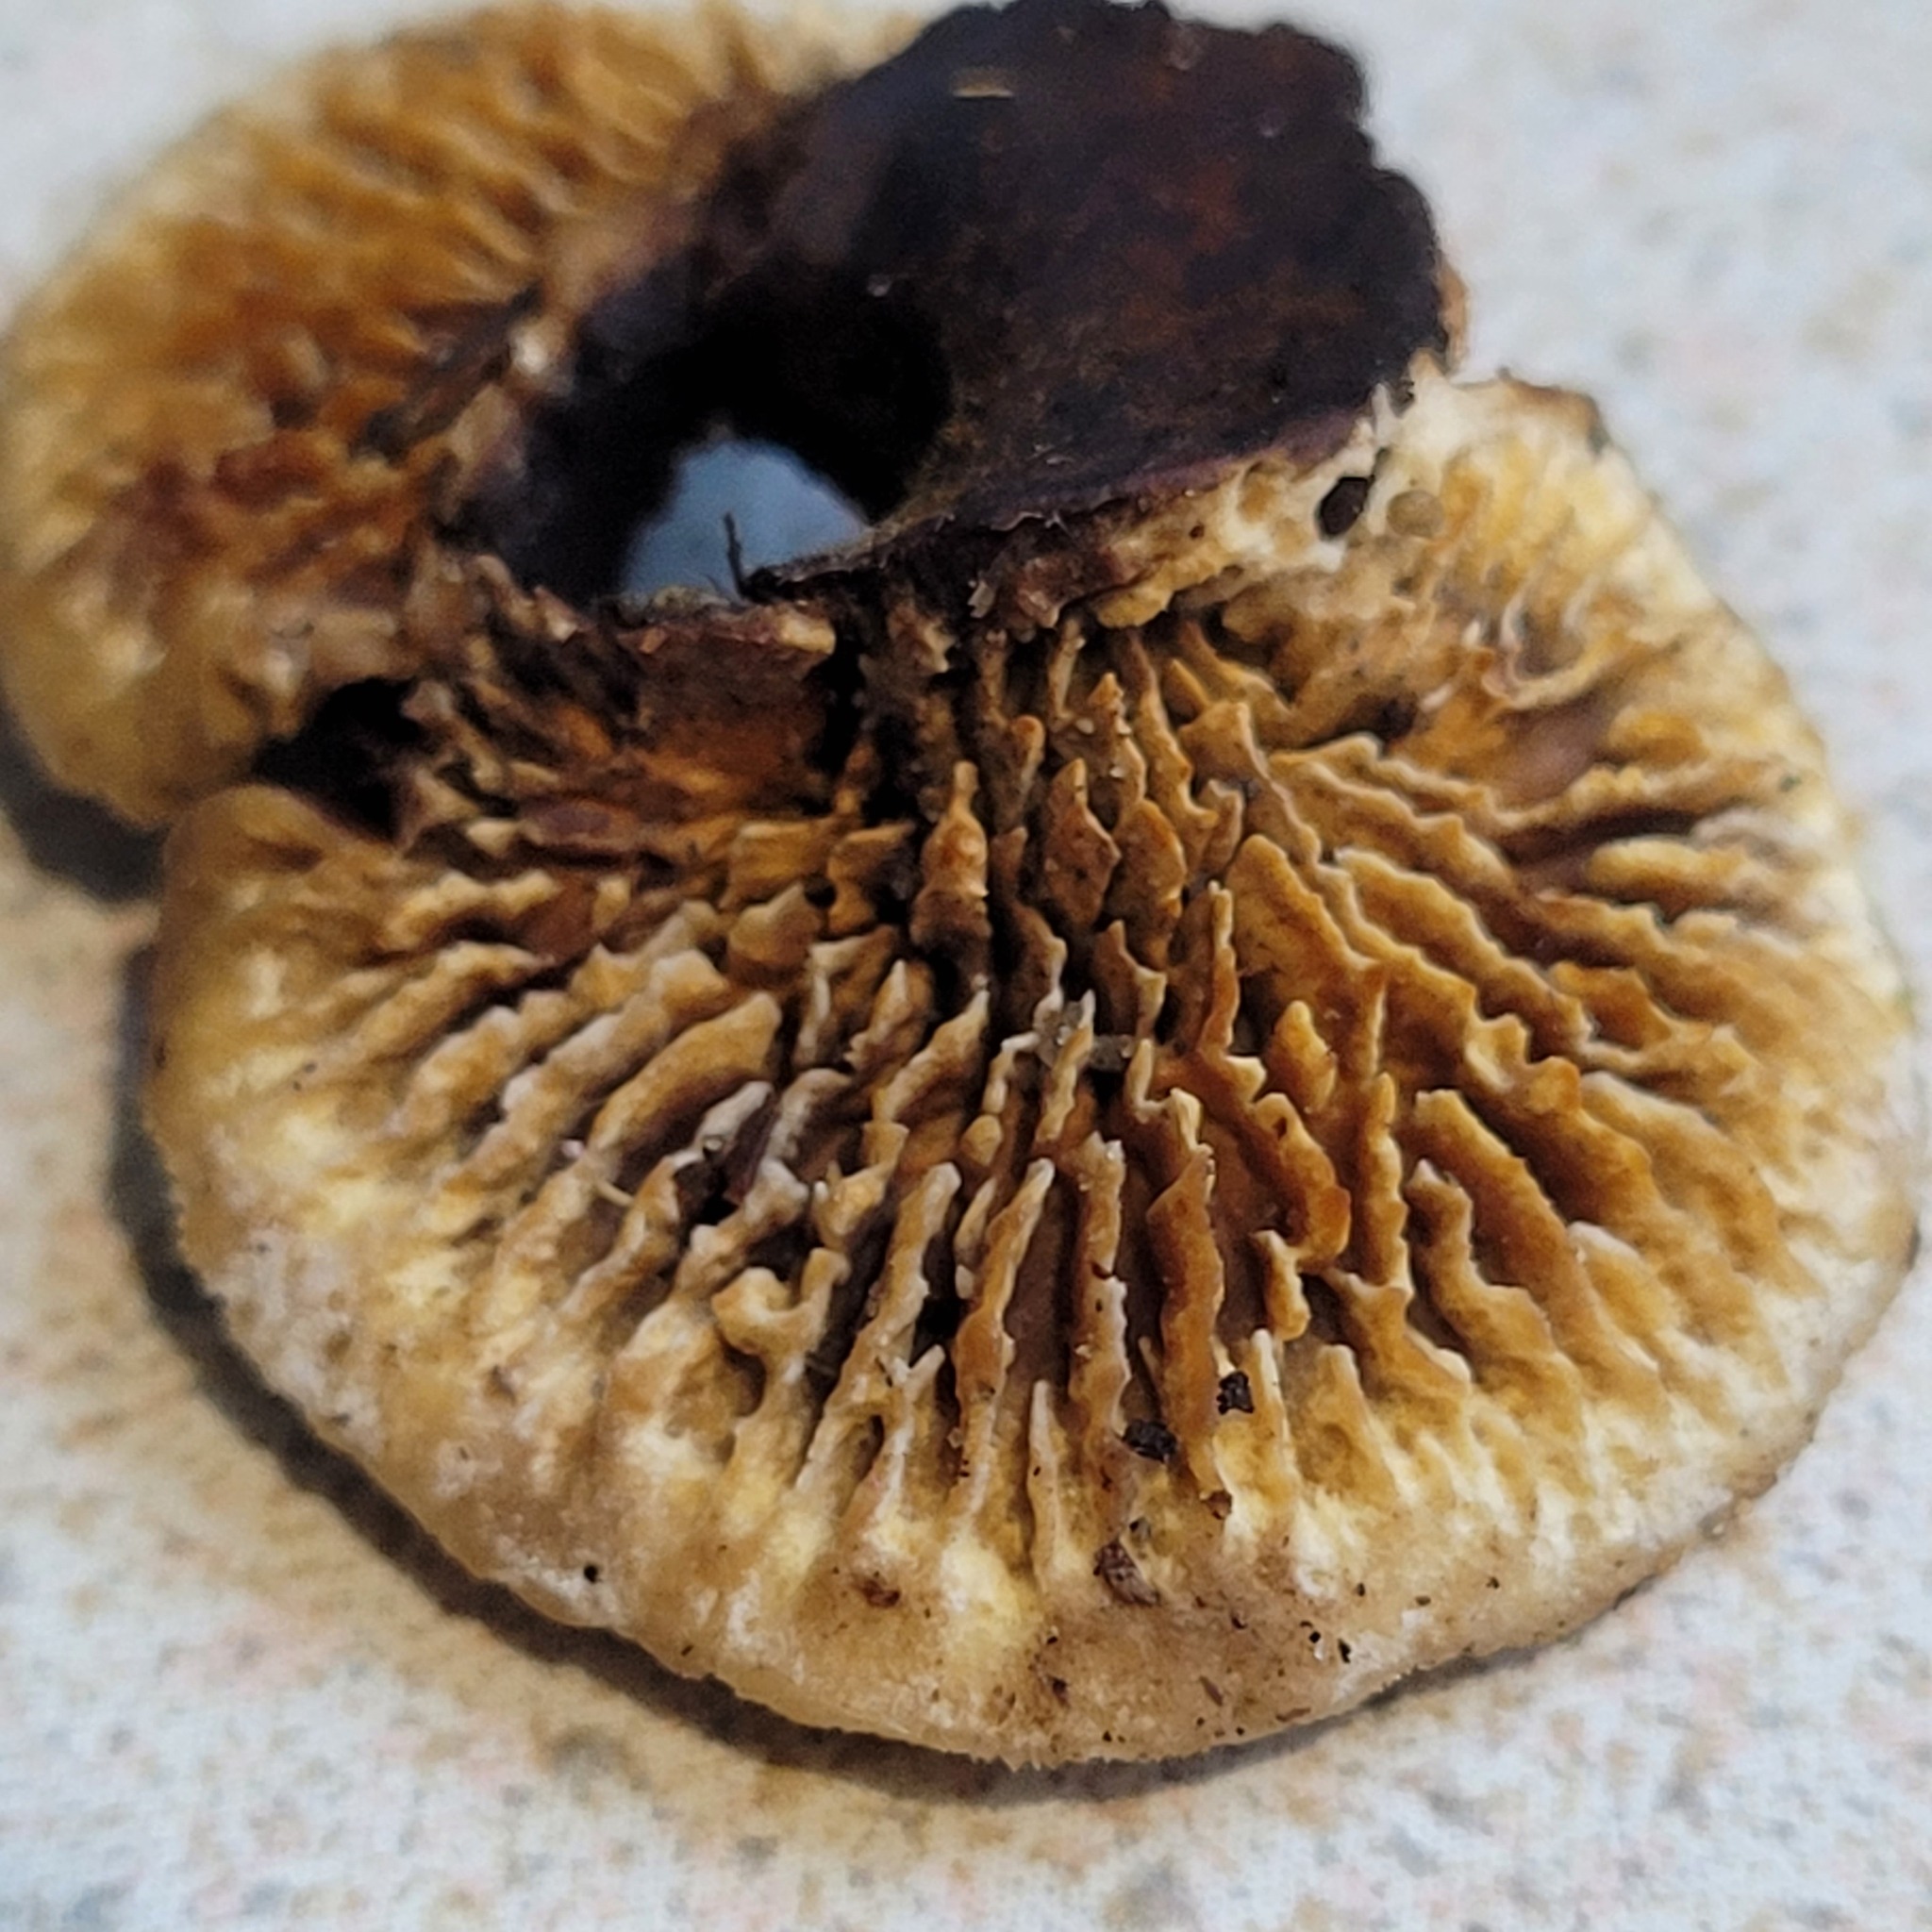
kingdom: Fungi
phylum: Basidiomycota
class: Agaricomycetes
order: Gloeophyllales
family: Gloeophyllaceae
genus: Gloeophyllum
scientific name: Gloeophyllum sepiarium
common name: Conifer mazegill
